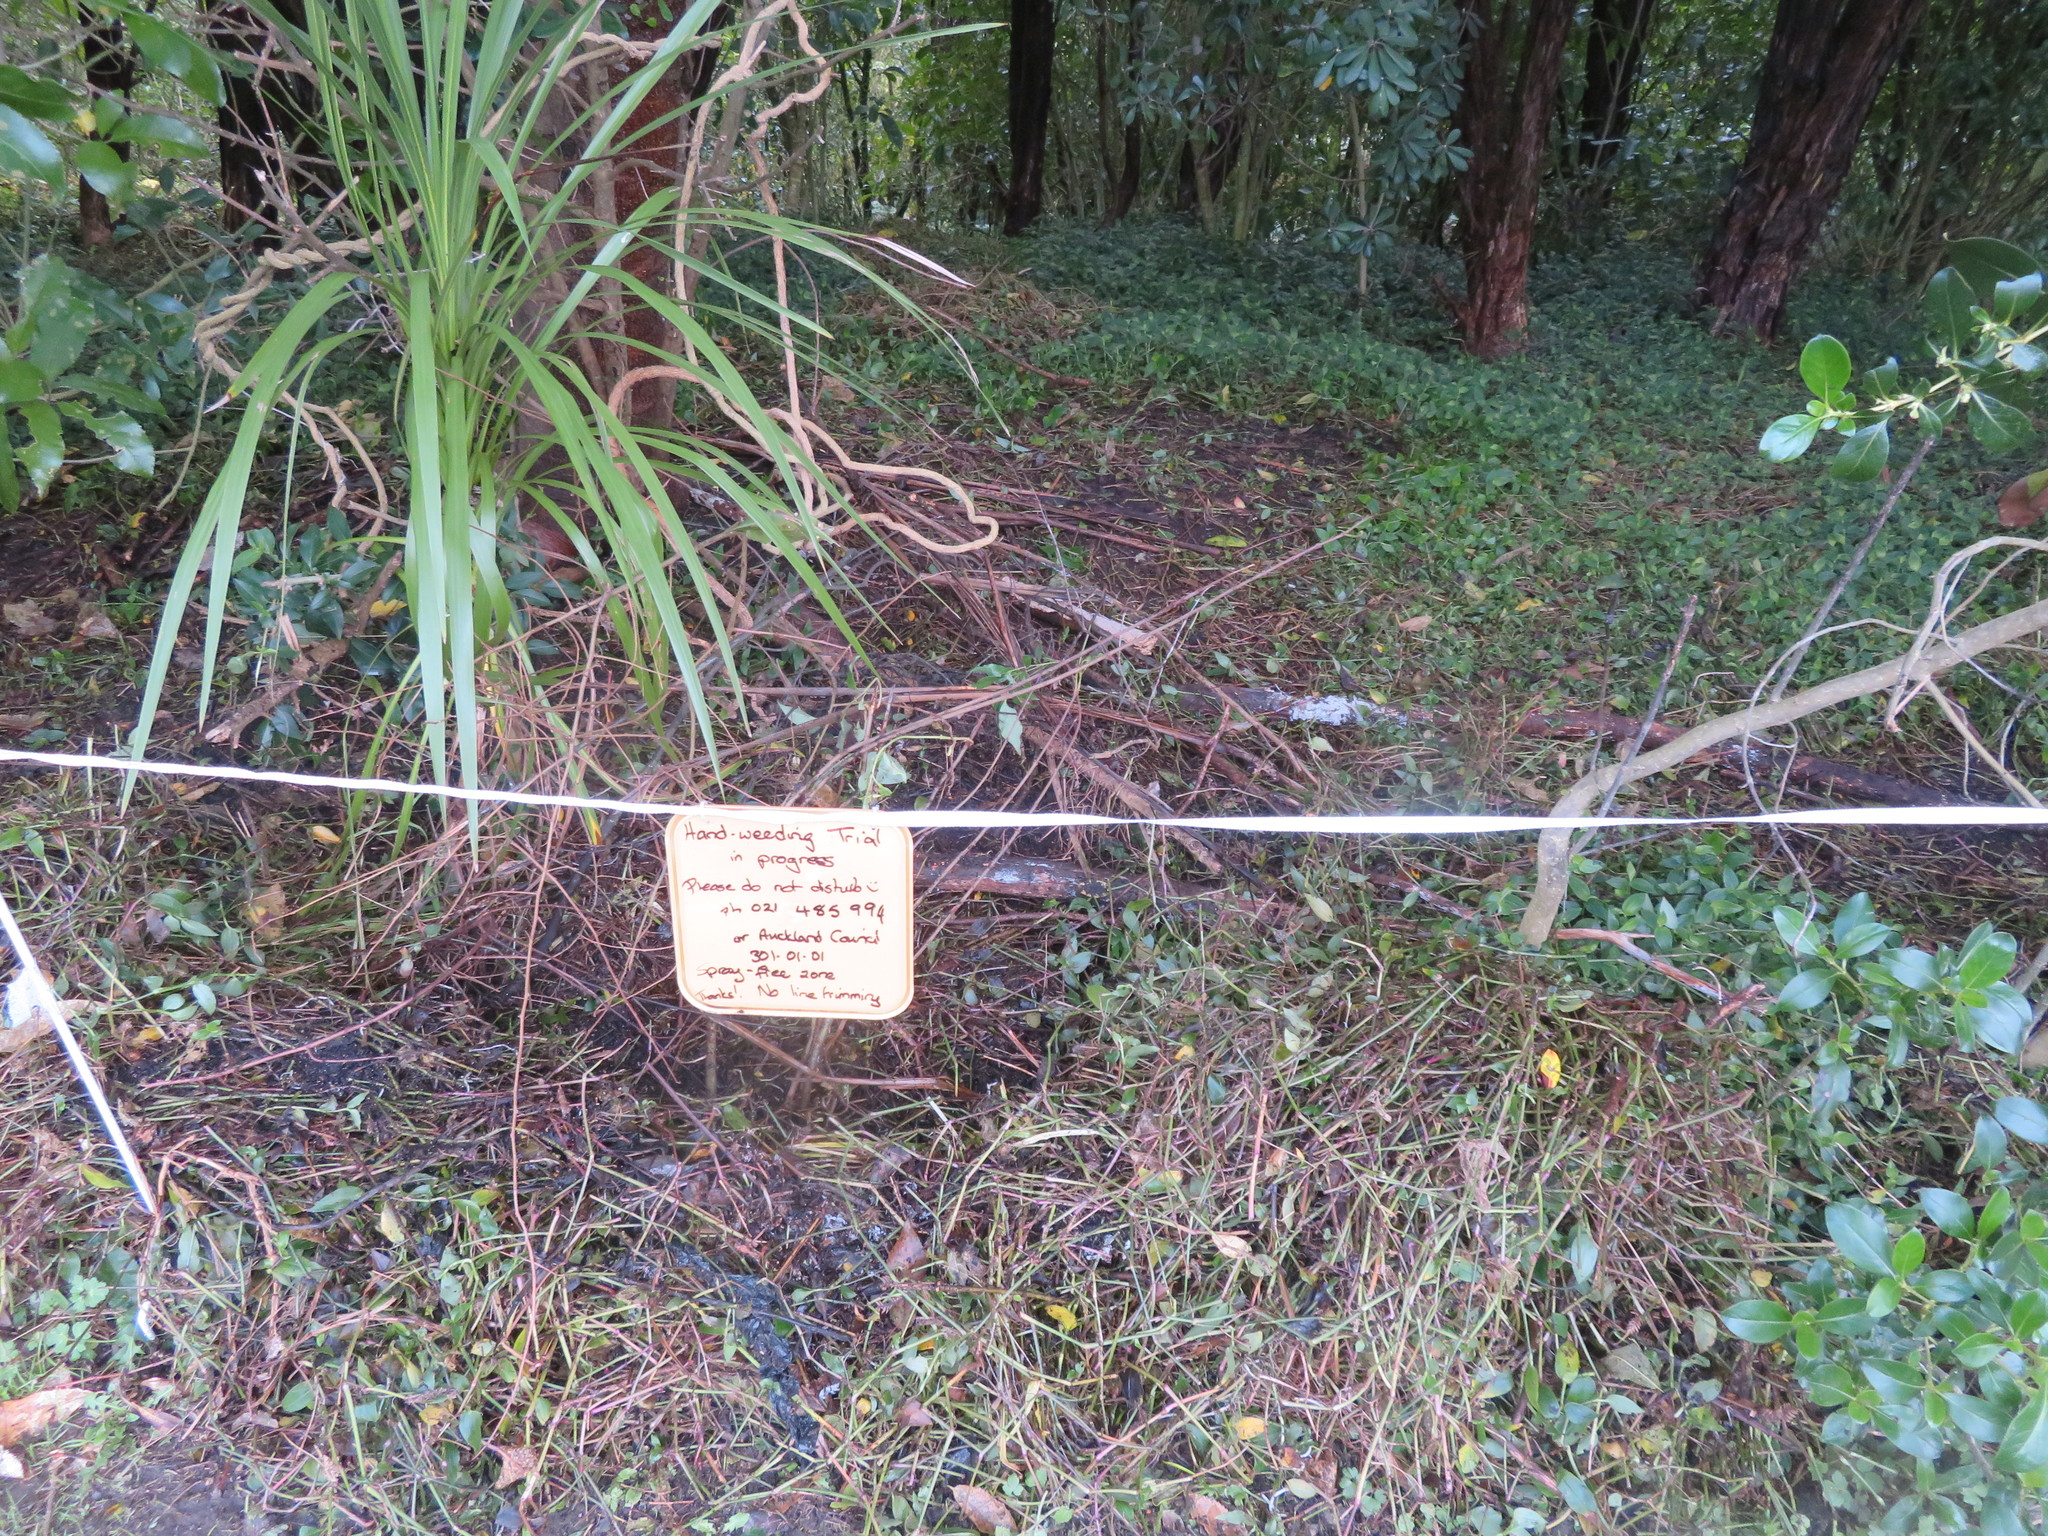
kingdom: Plantae
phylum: Tracheophyta
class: Liliopsida
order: Commelinales
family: Commelinaceae
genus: Tradescantia
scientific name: Tradescantia fluminensis
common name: Wandering-jew
